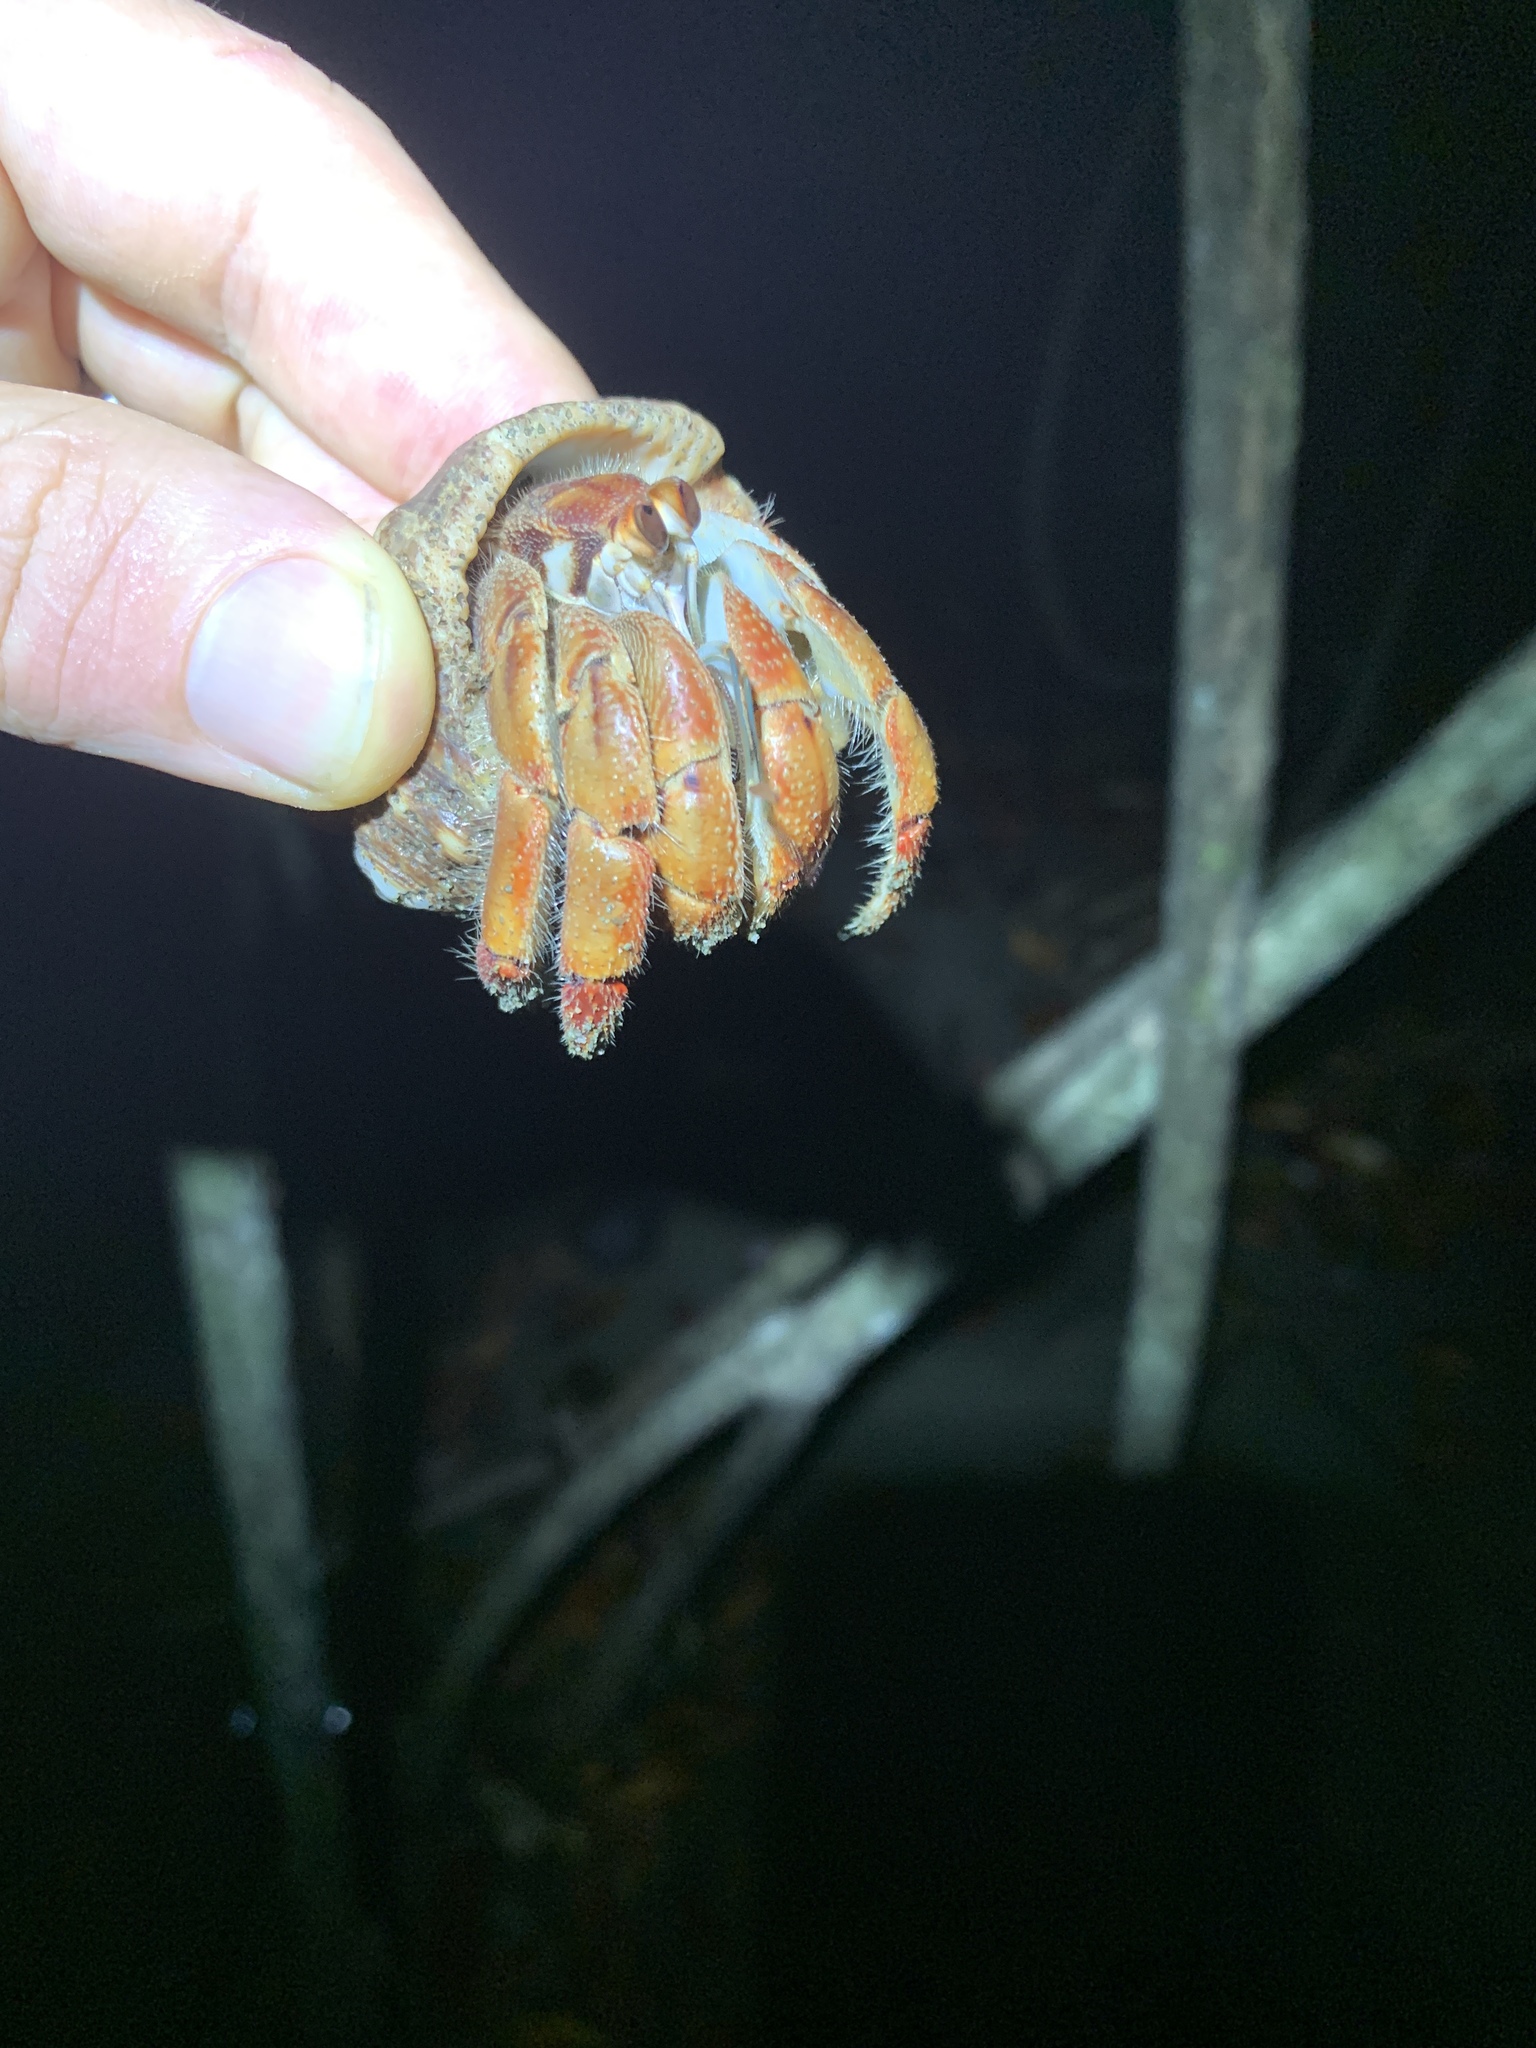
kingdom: Animalia
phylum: Arthropoda
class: Malacostraca
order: Decapoda
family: Coenobitidae
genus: Coenobita
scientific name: Coenobita compressus
